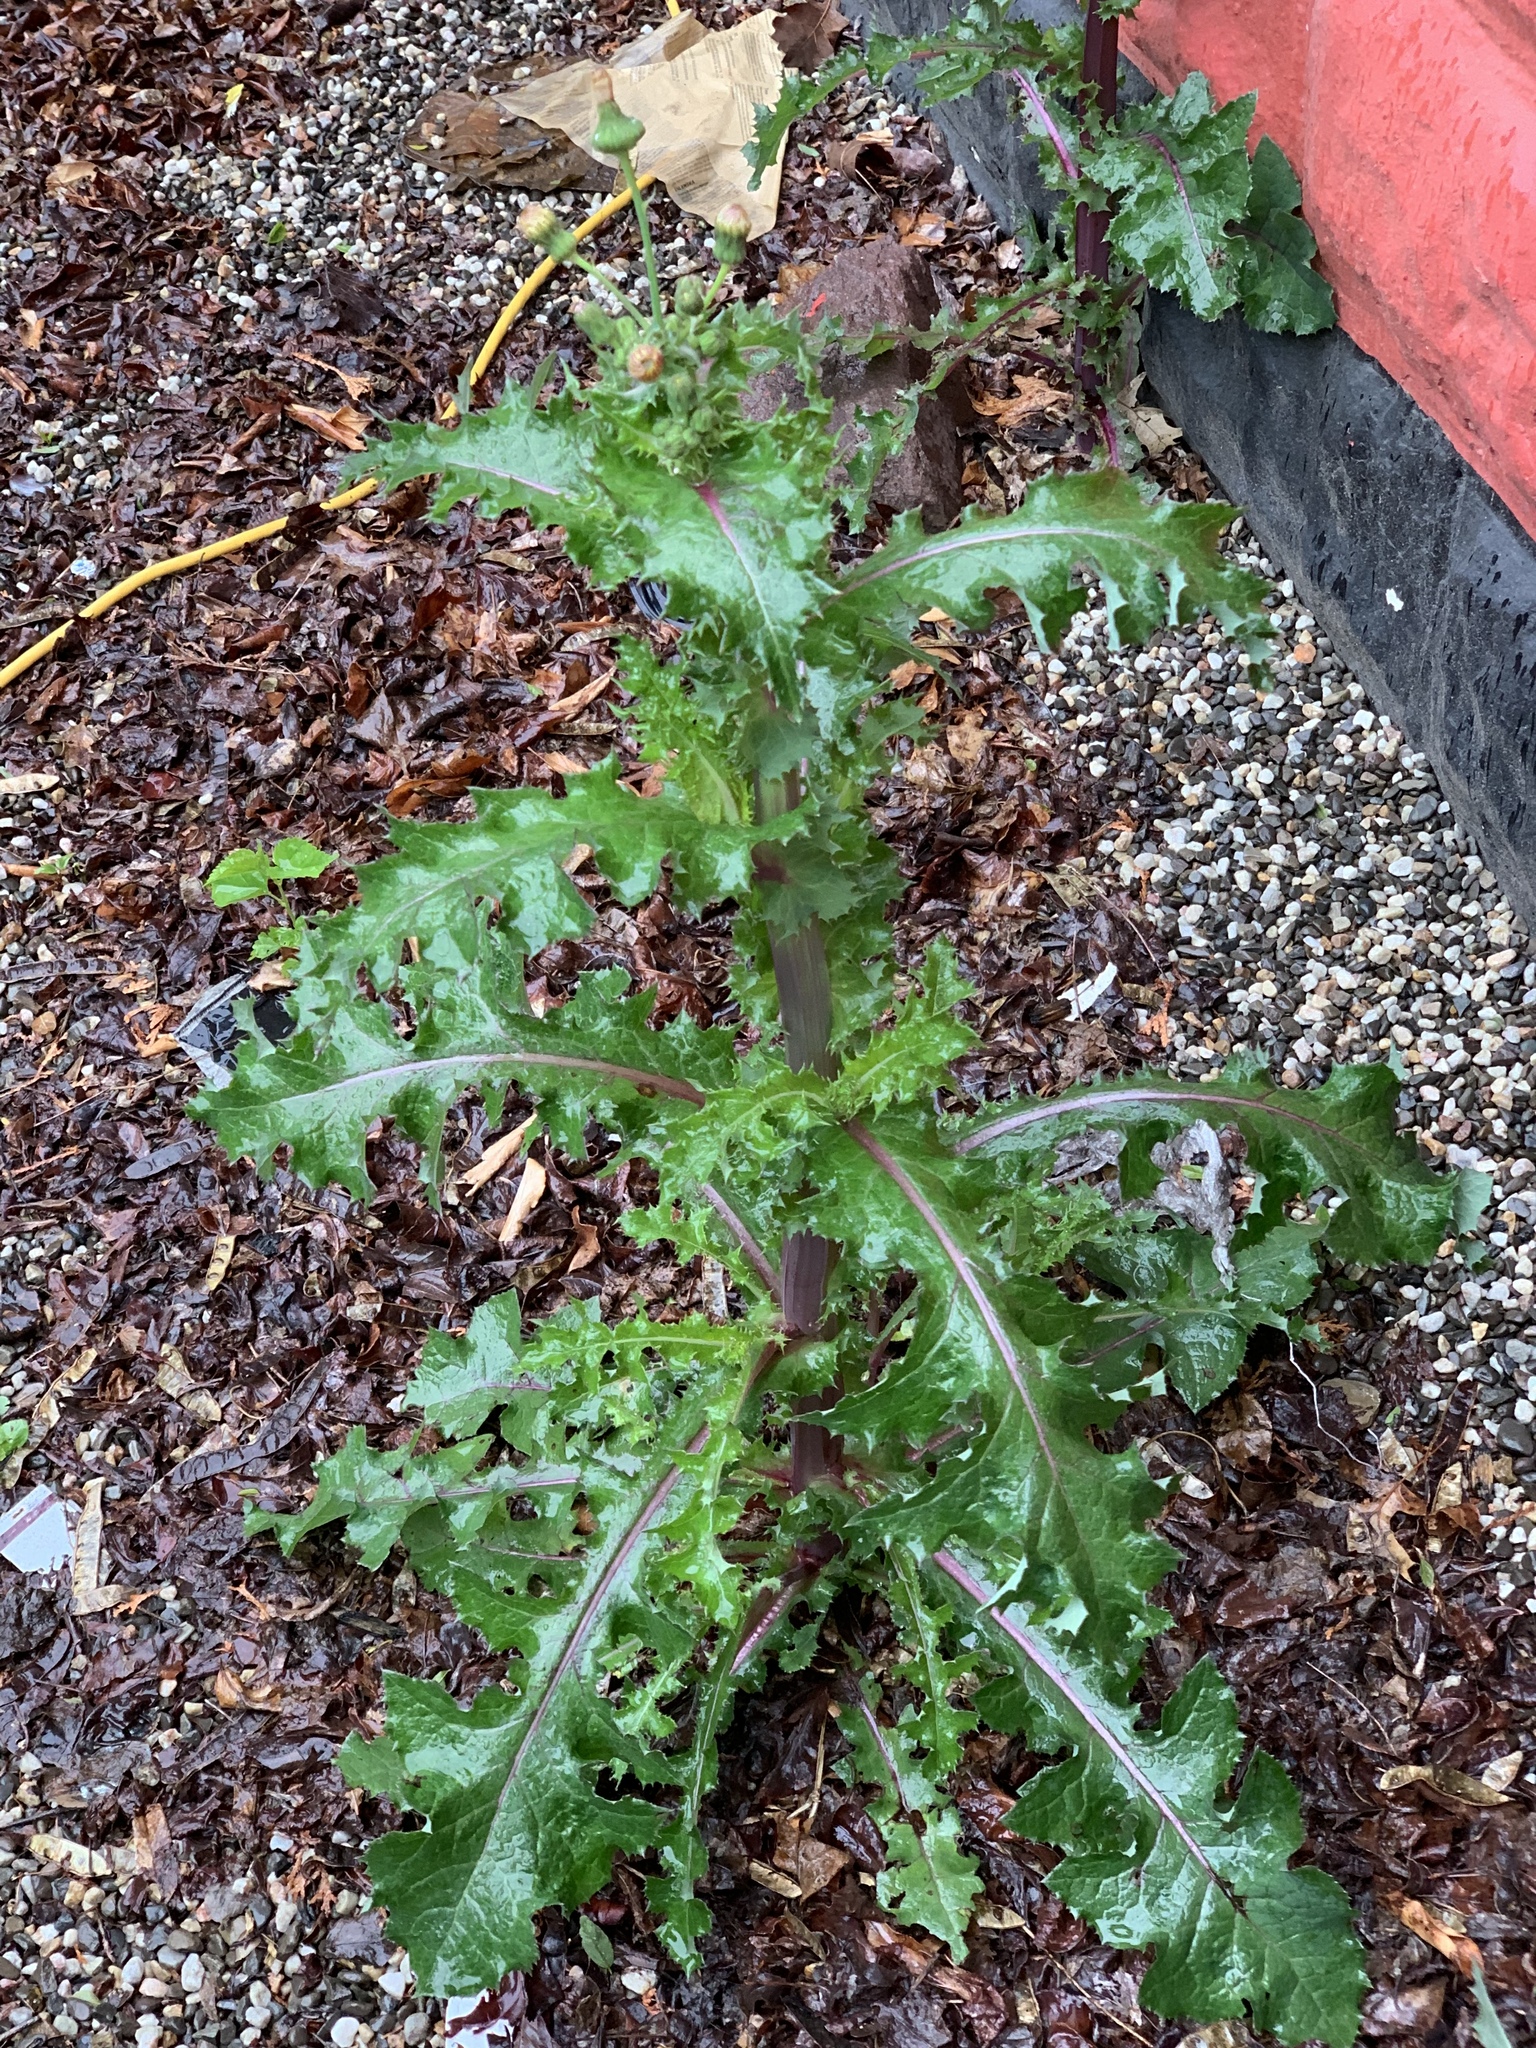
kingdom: Plantae
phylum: Tracheophyta
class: Magnoliopsida
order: Asterales
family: Asteraceae
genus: Sonchus
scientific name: Sonchus asper
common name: Prickly sow-thistle
